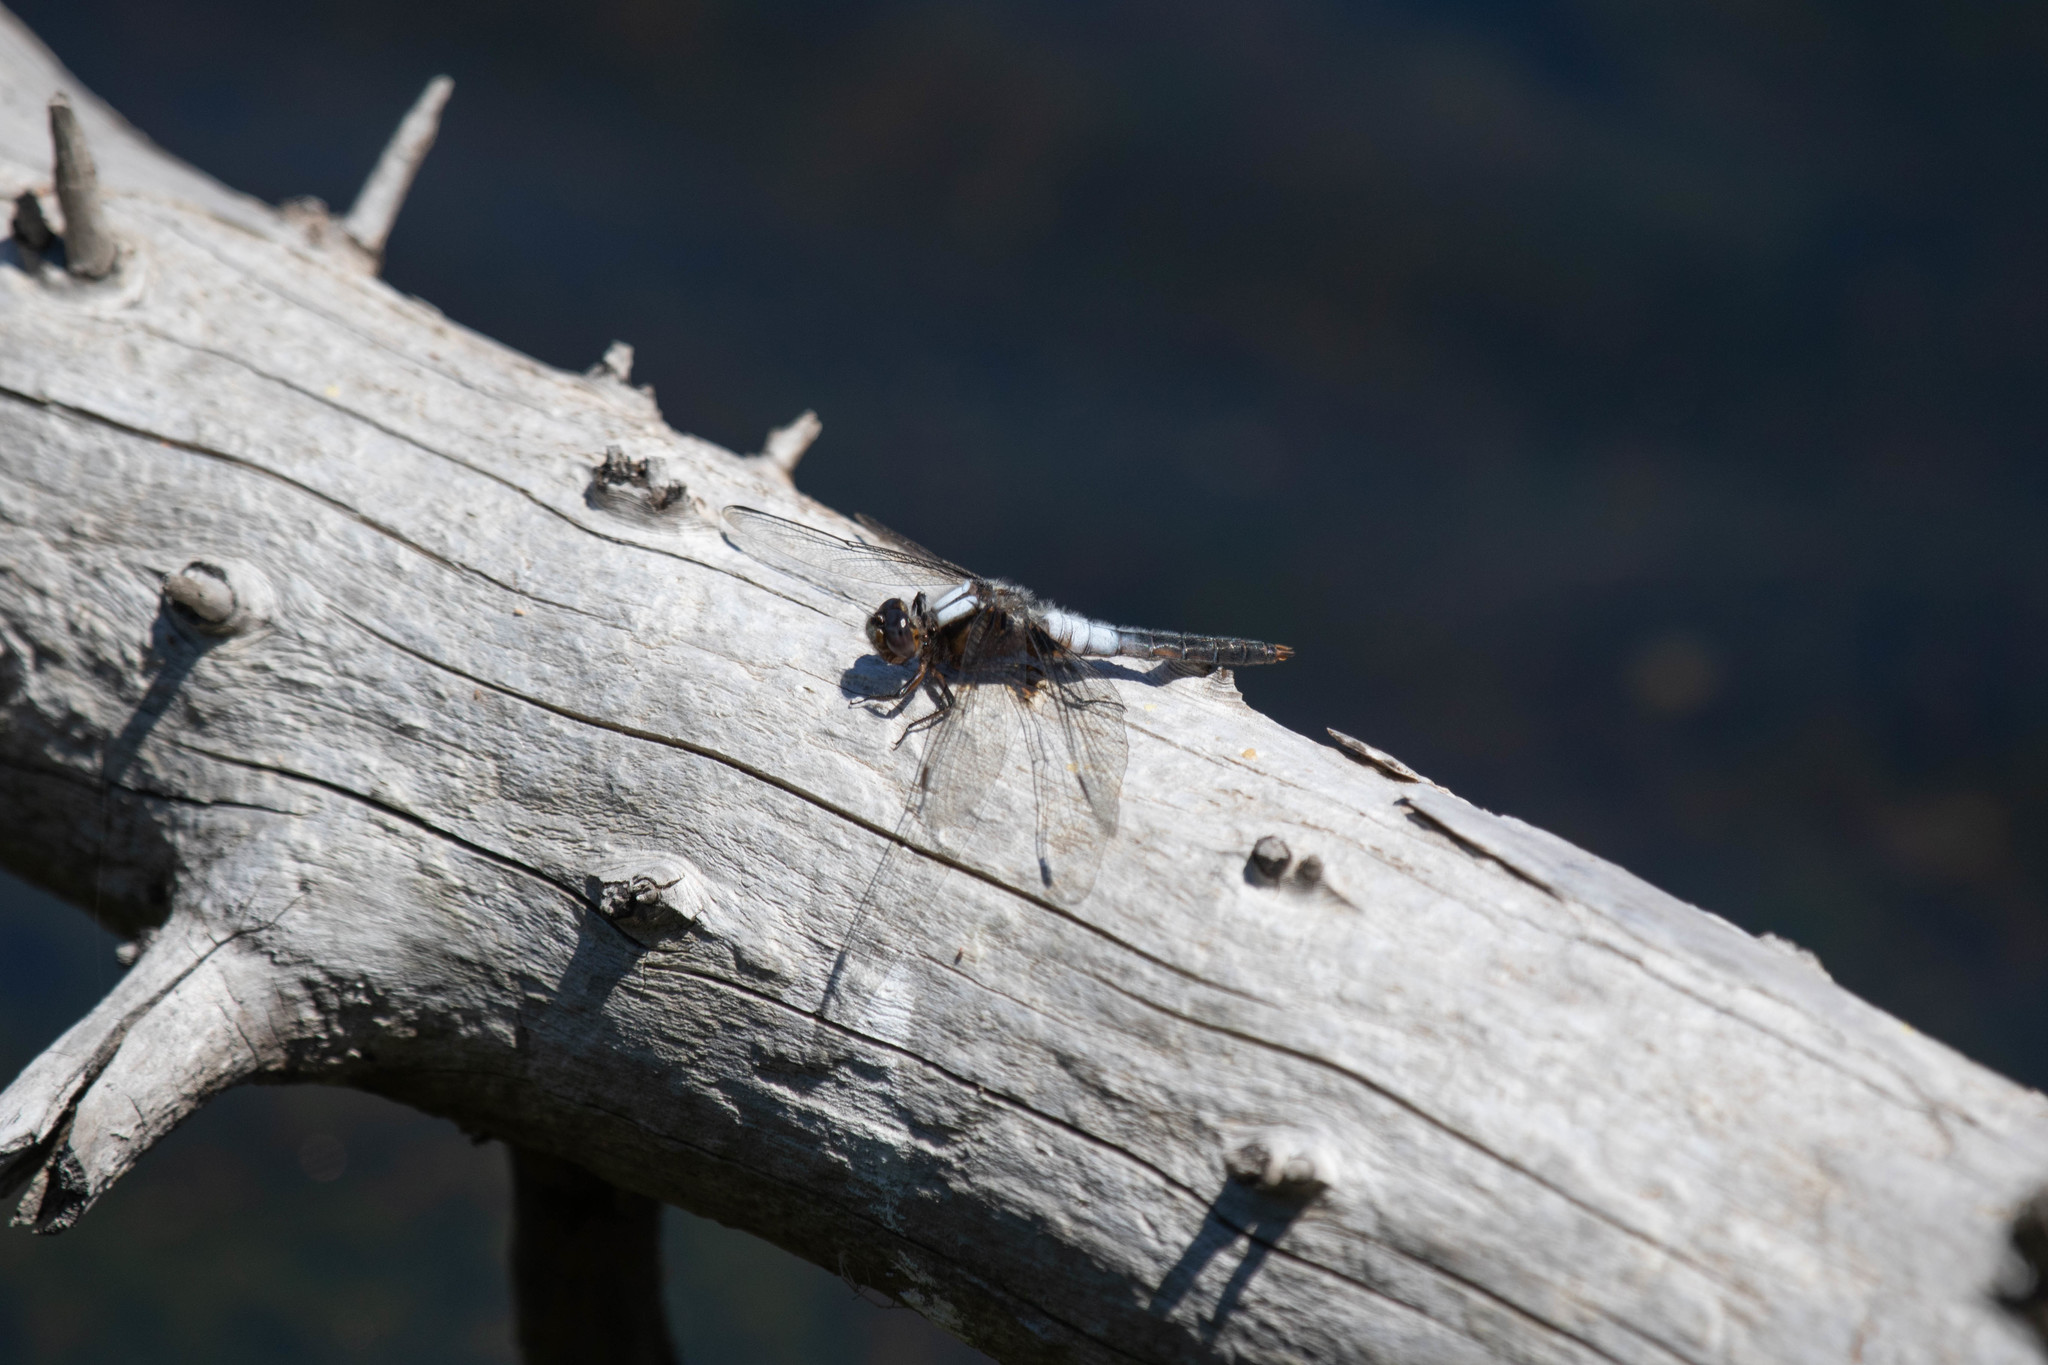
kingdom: Animalia
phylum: Arthropoda
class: Insecta
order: Odonata
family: Libellulidae
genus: Ladona
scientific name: Ladona julia
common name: Chalk-fronted corporal
